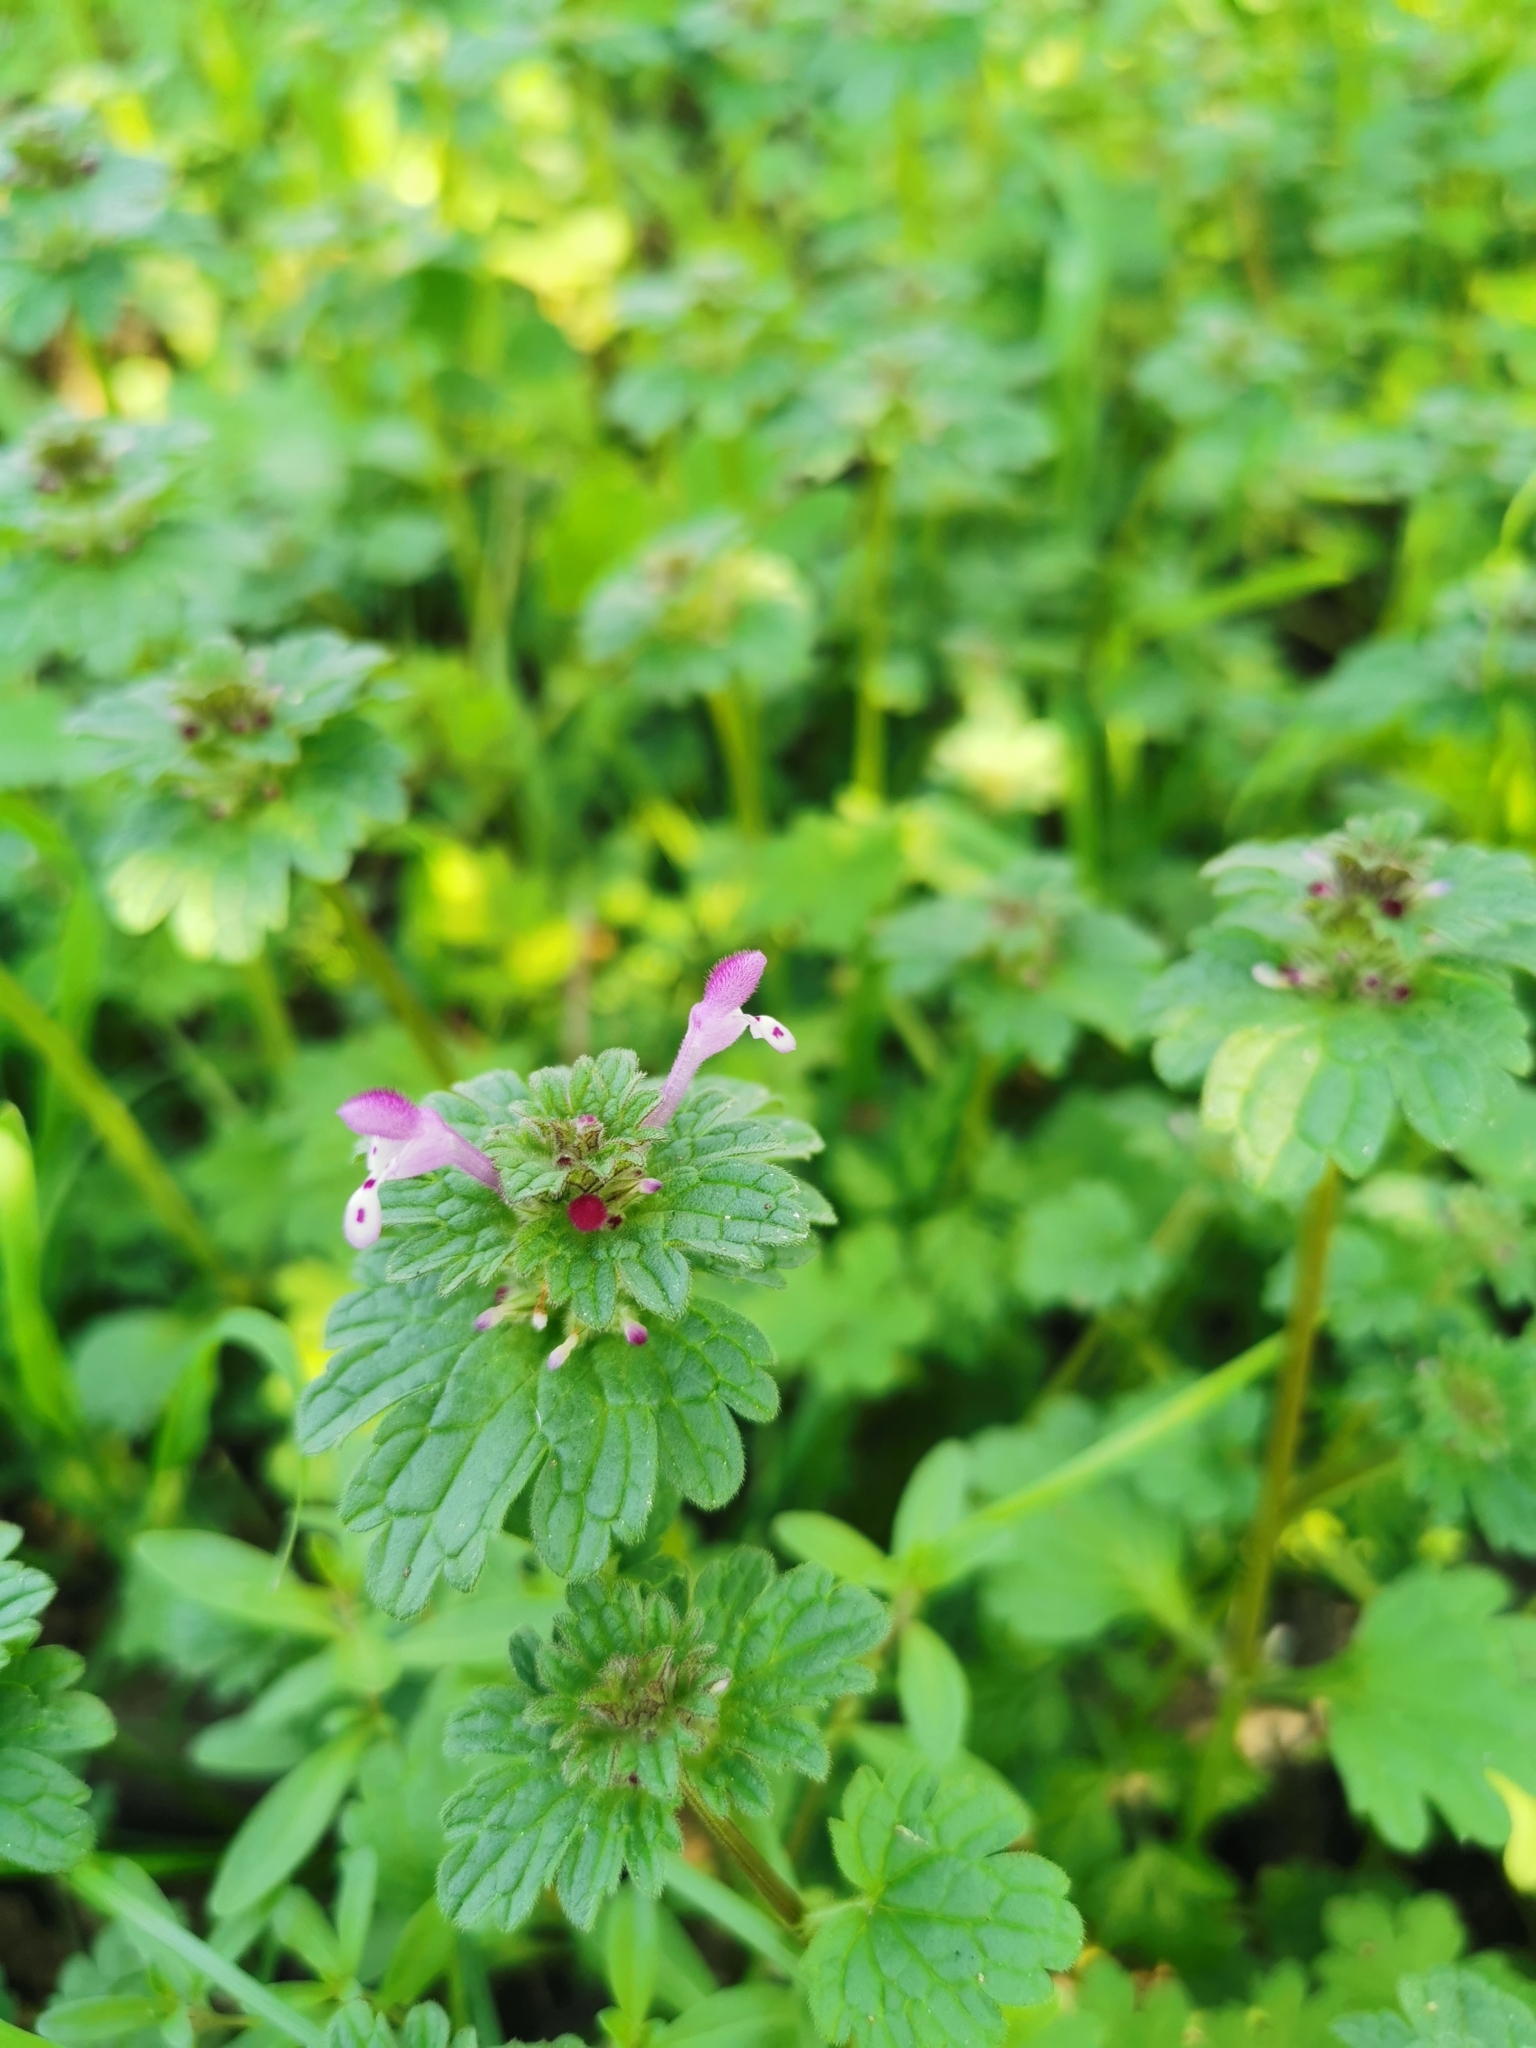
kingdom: Plantae
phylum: Tracheophyta
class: Magnoliopsida
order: Lamiales
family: Lamiaceae
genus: Lamium
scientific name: Lamium amplexicaule
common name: Henbit dead-nettle
